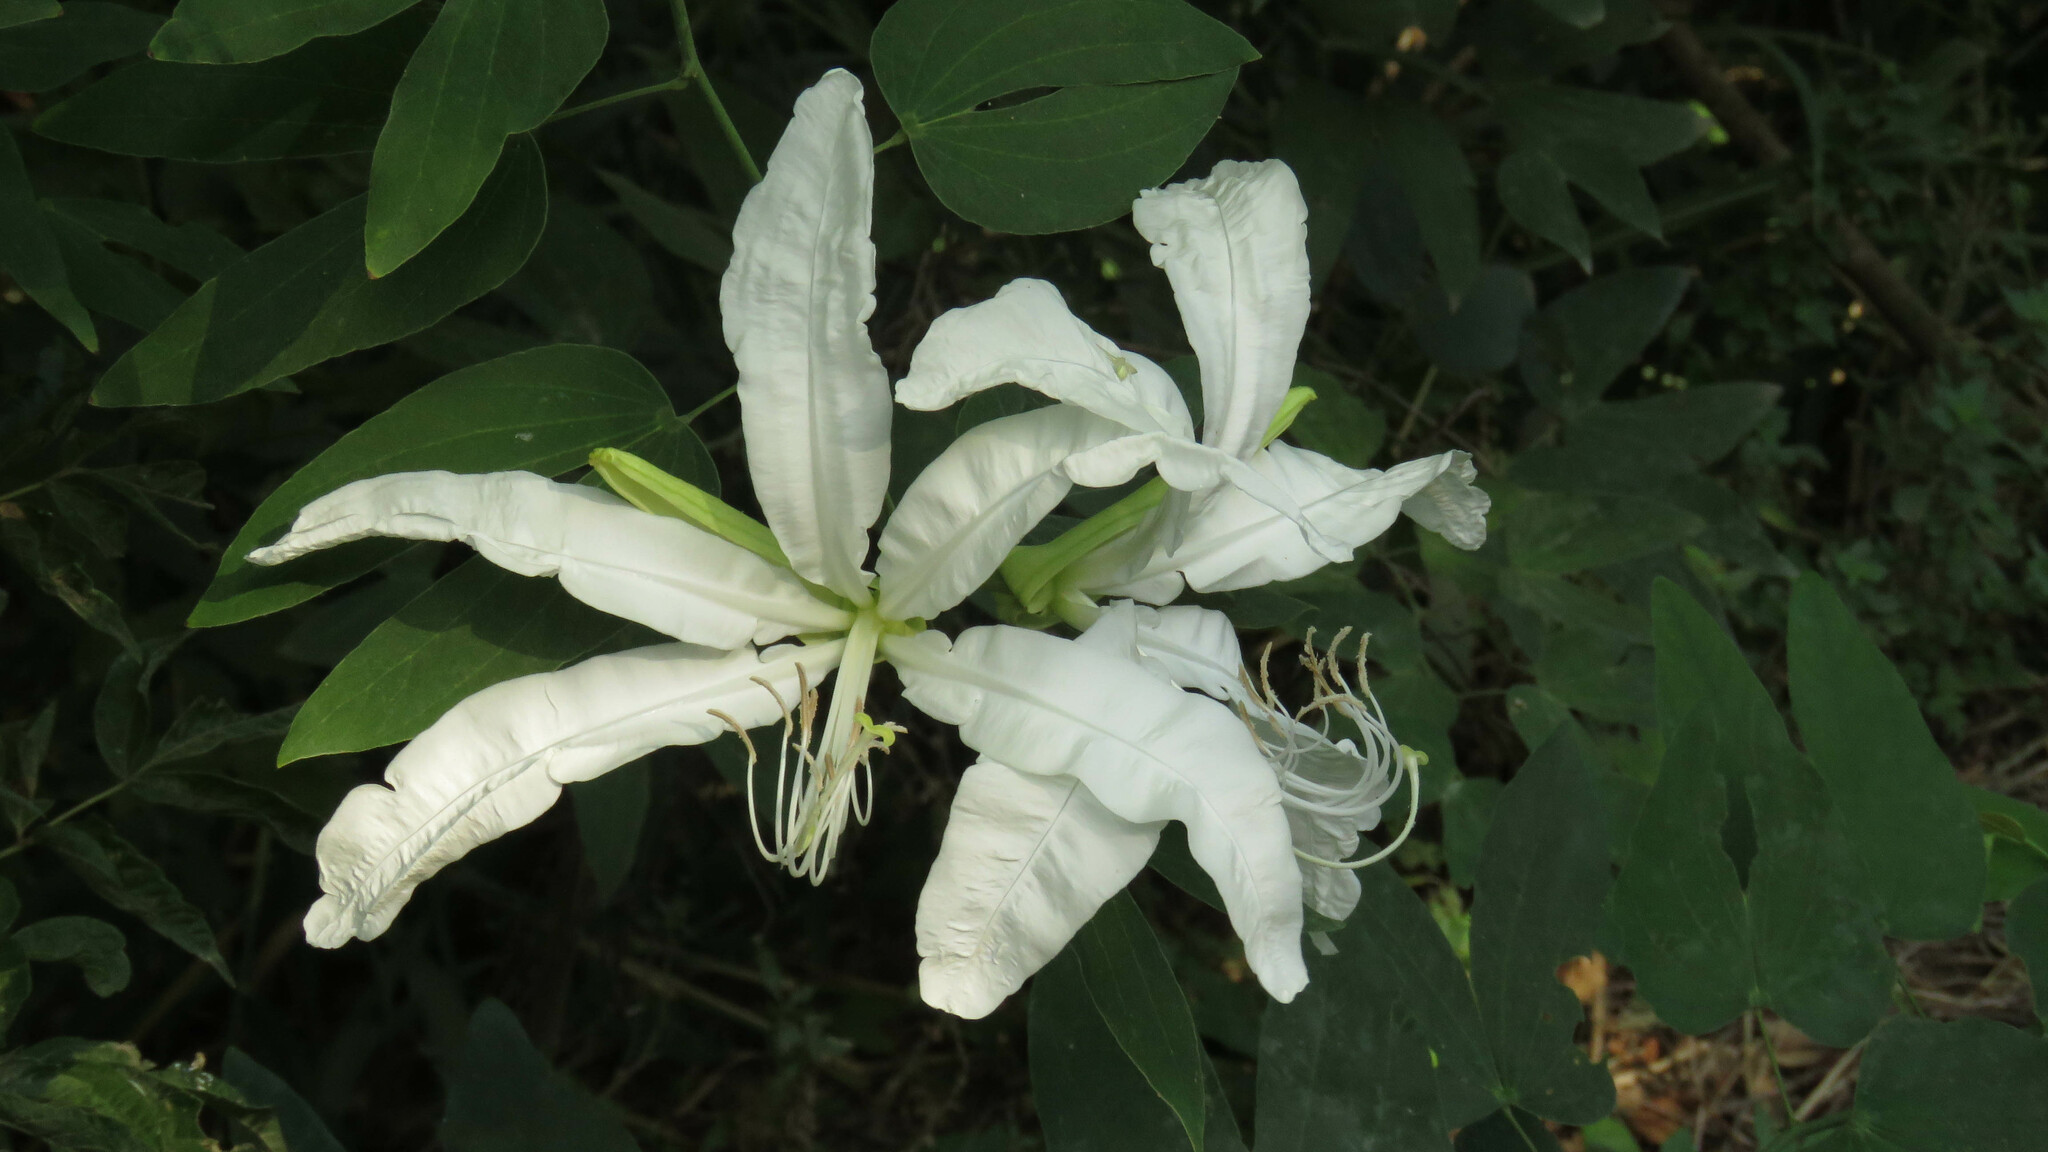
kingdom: Plantae
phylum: Tracheophyta
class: Magnoliopsida
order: Fabales
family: Fabaceae
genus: Bauhinia
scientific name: Bauhinia forficata
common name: Orchid tree
